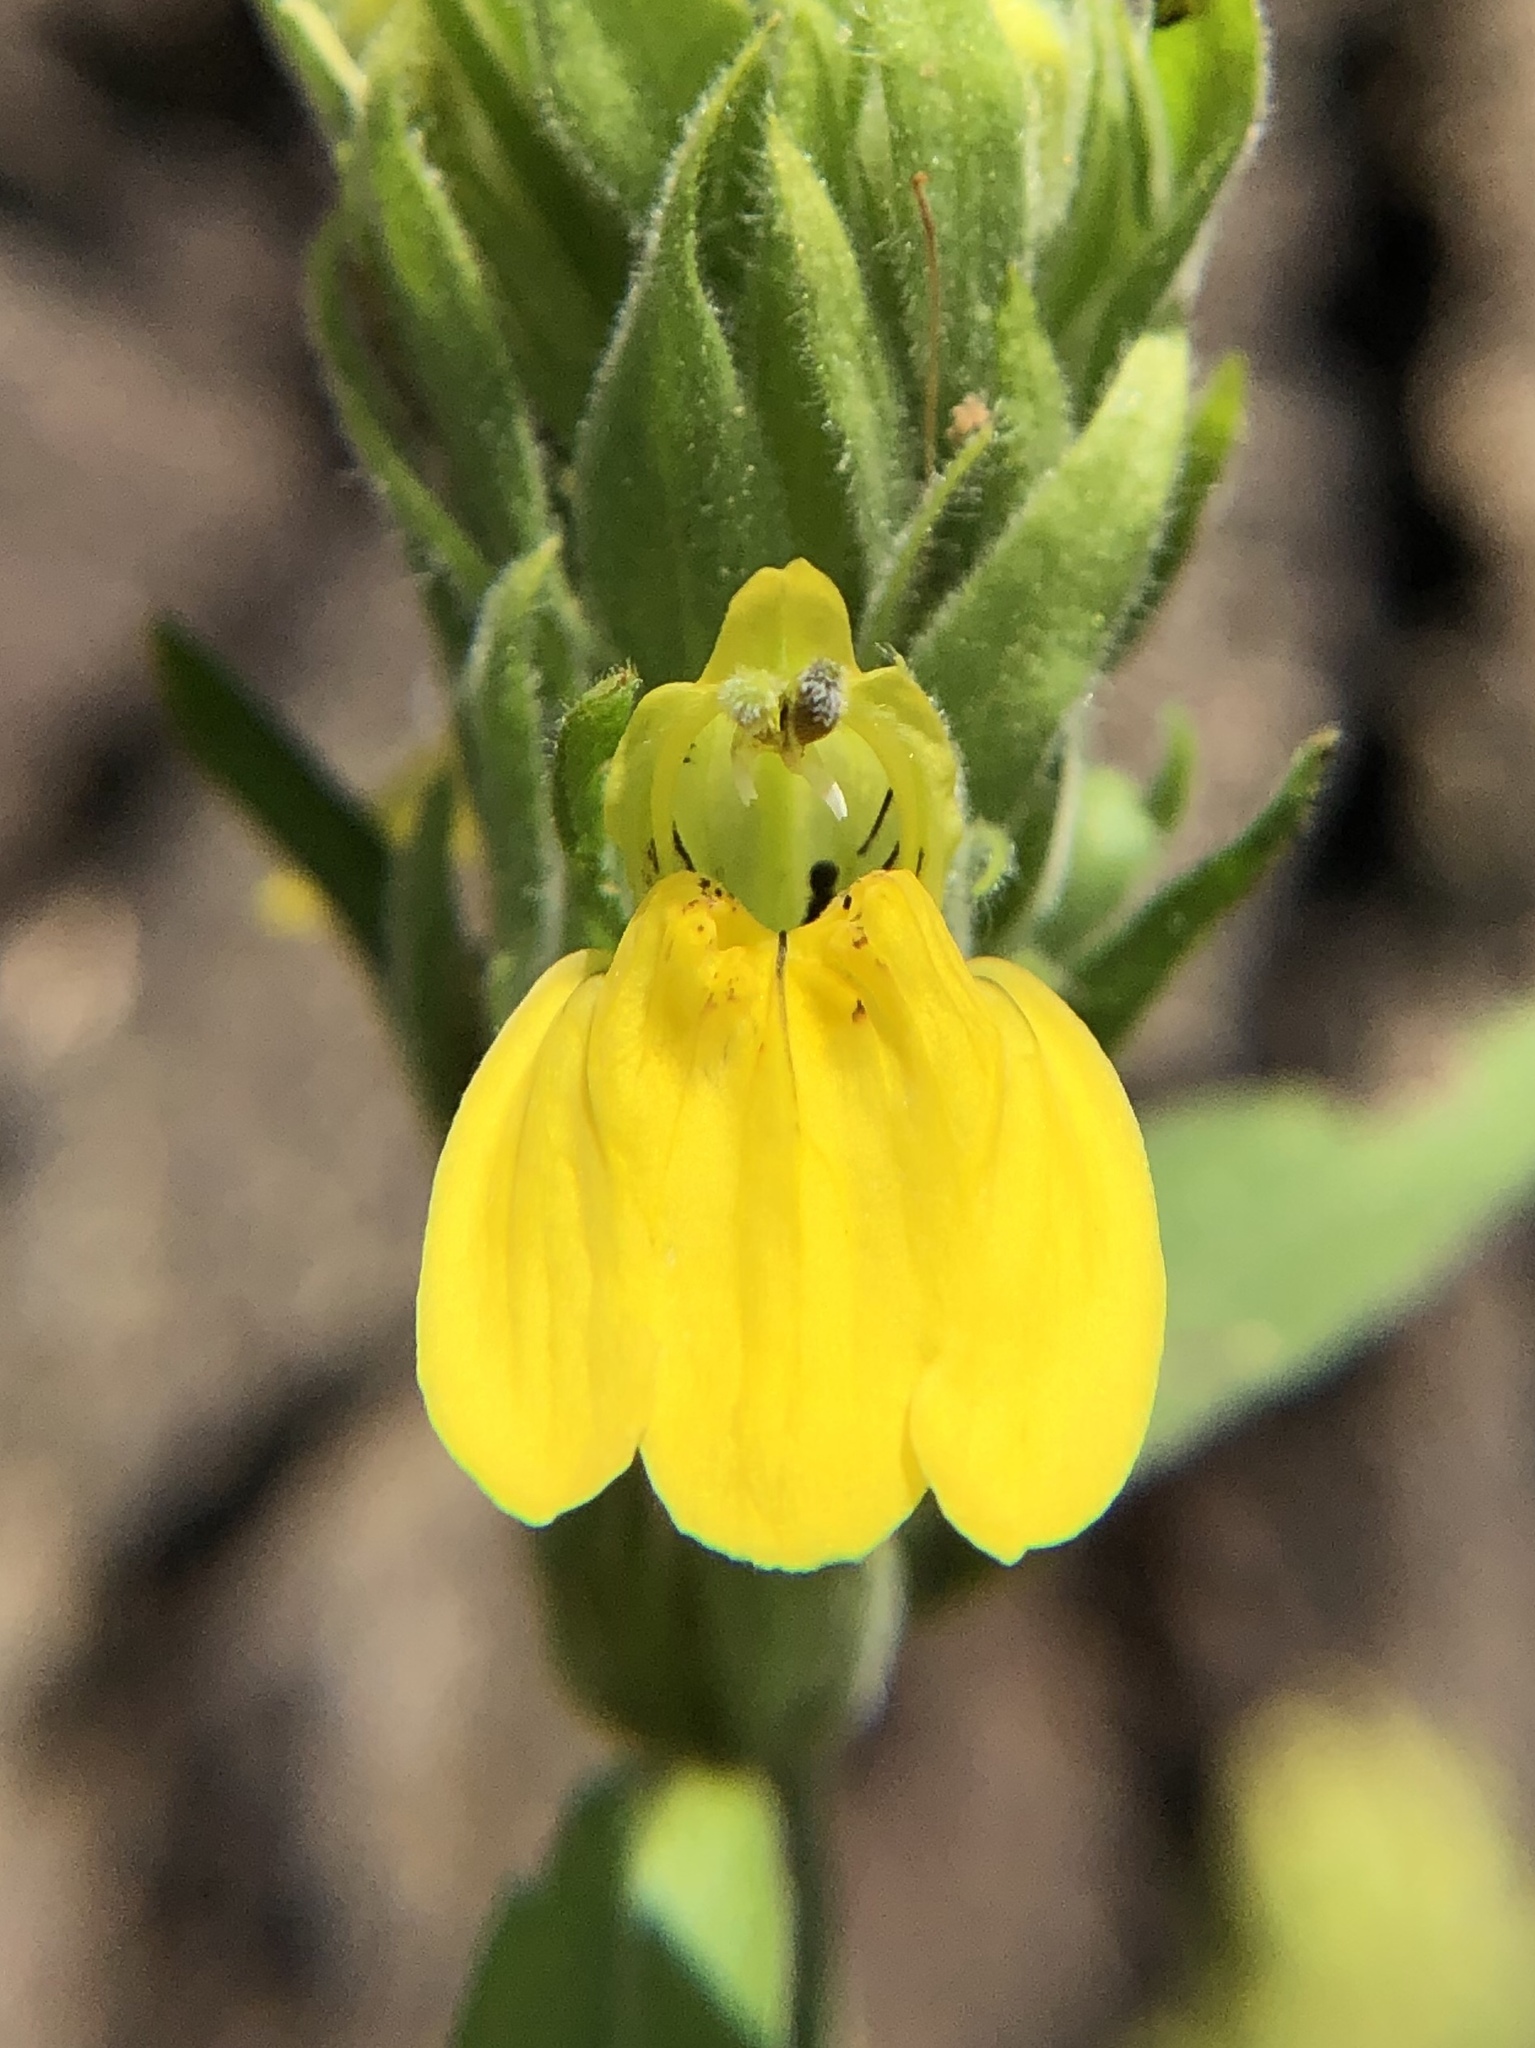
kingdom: Plantae
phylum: Tracheophyta
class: Magnoliopsida
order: Lamiales
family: Acanthaceae
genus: Justicia
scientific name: Justicia flava
